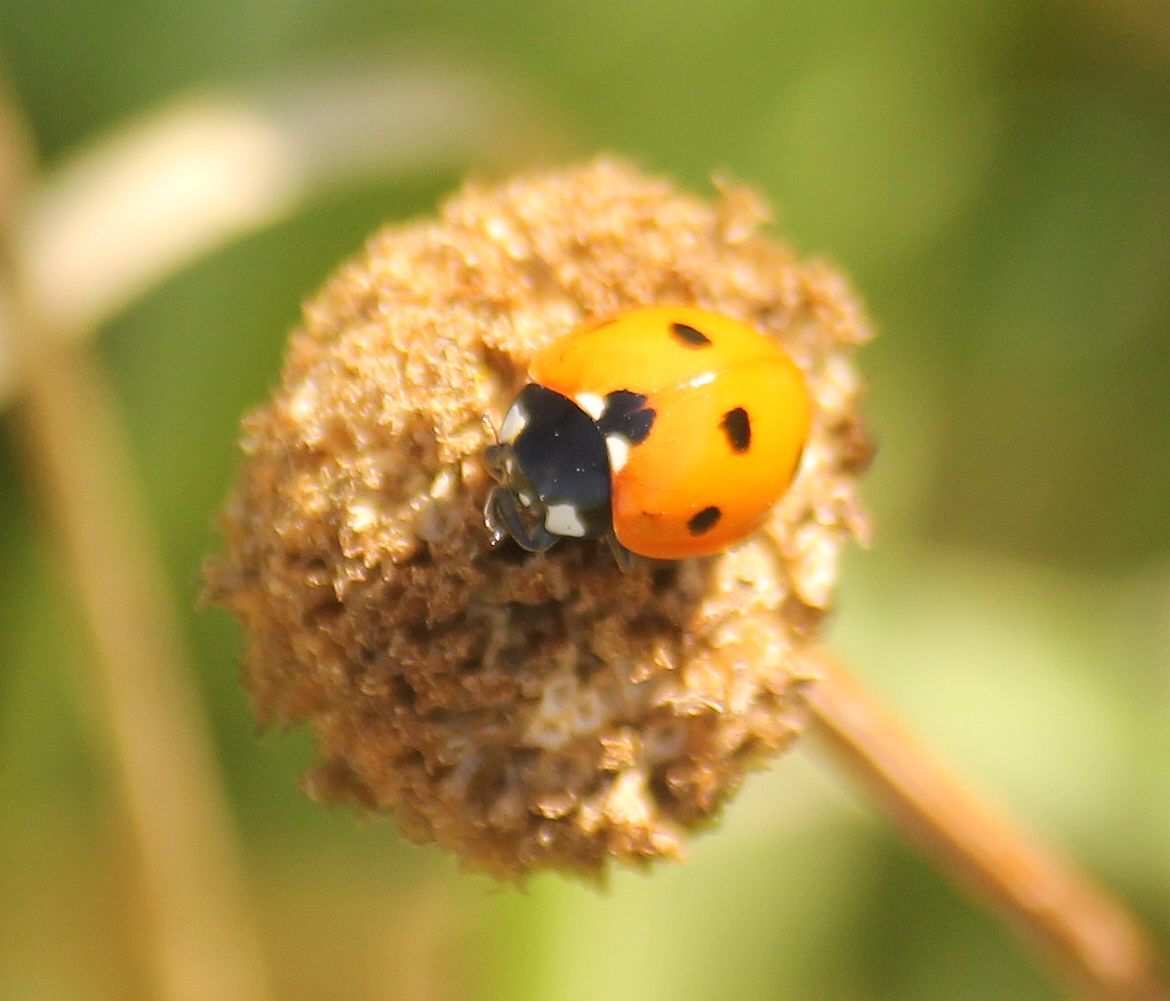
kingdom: Animalia
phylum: Arthropoda
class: Insecta
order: Coleoptera
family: Coccinellidae
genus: Coccinella
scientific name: Coccinella septempunctata
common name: Sevenspotted lady beetle
